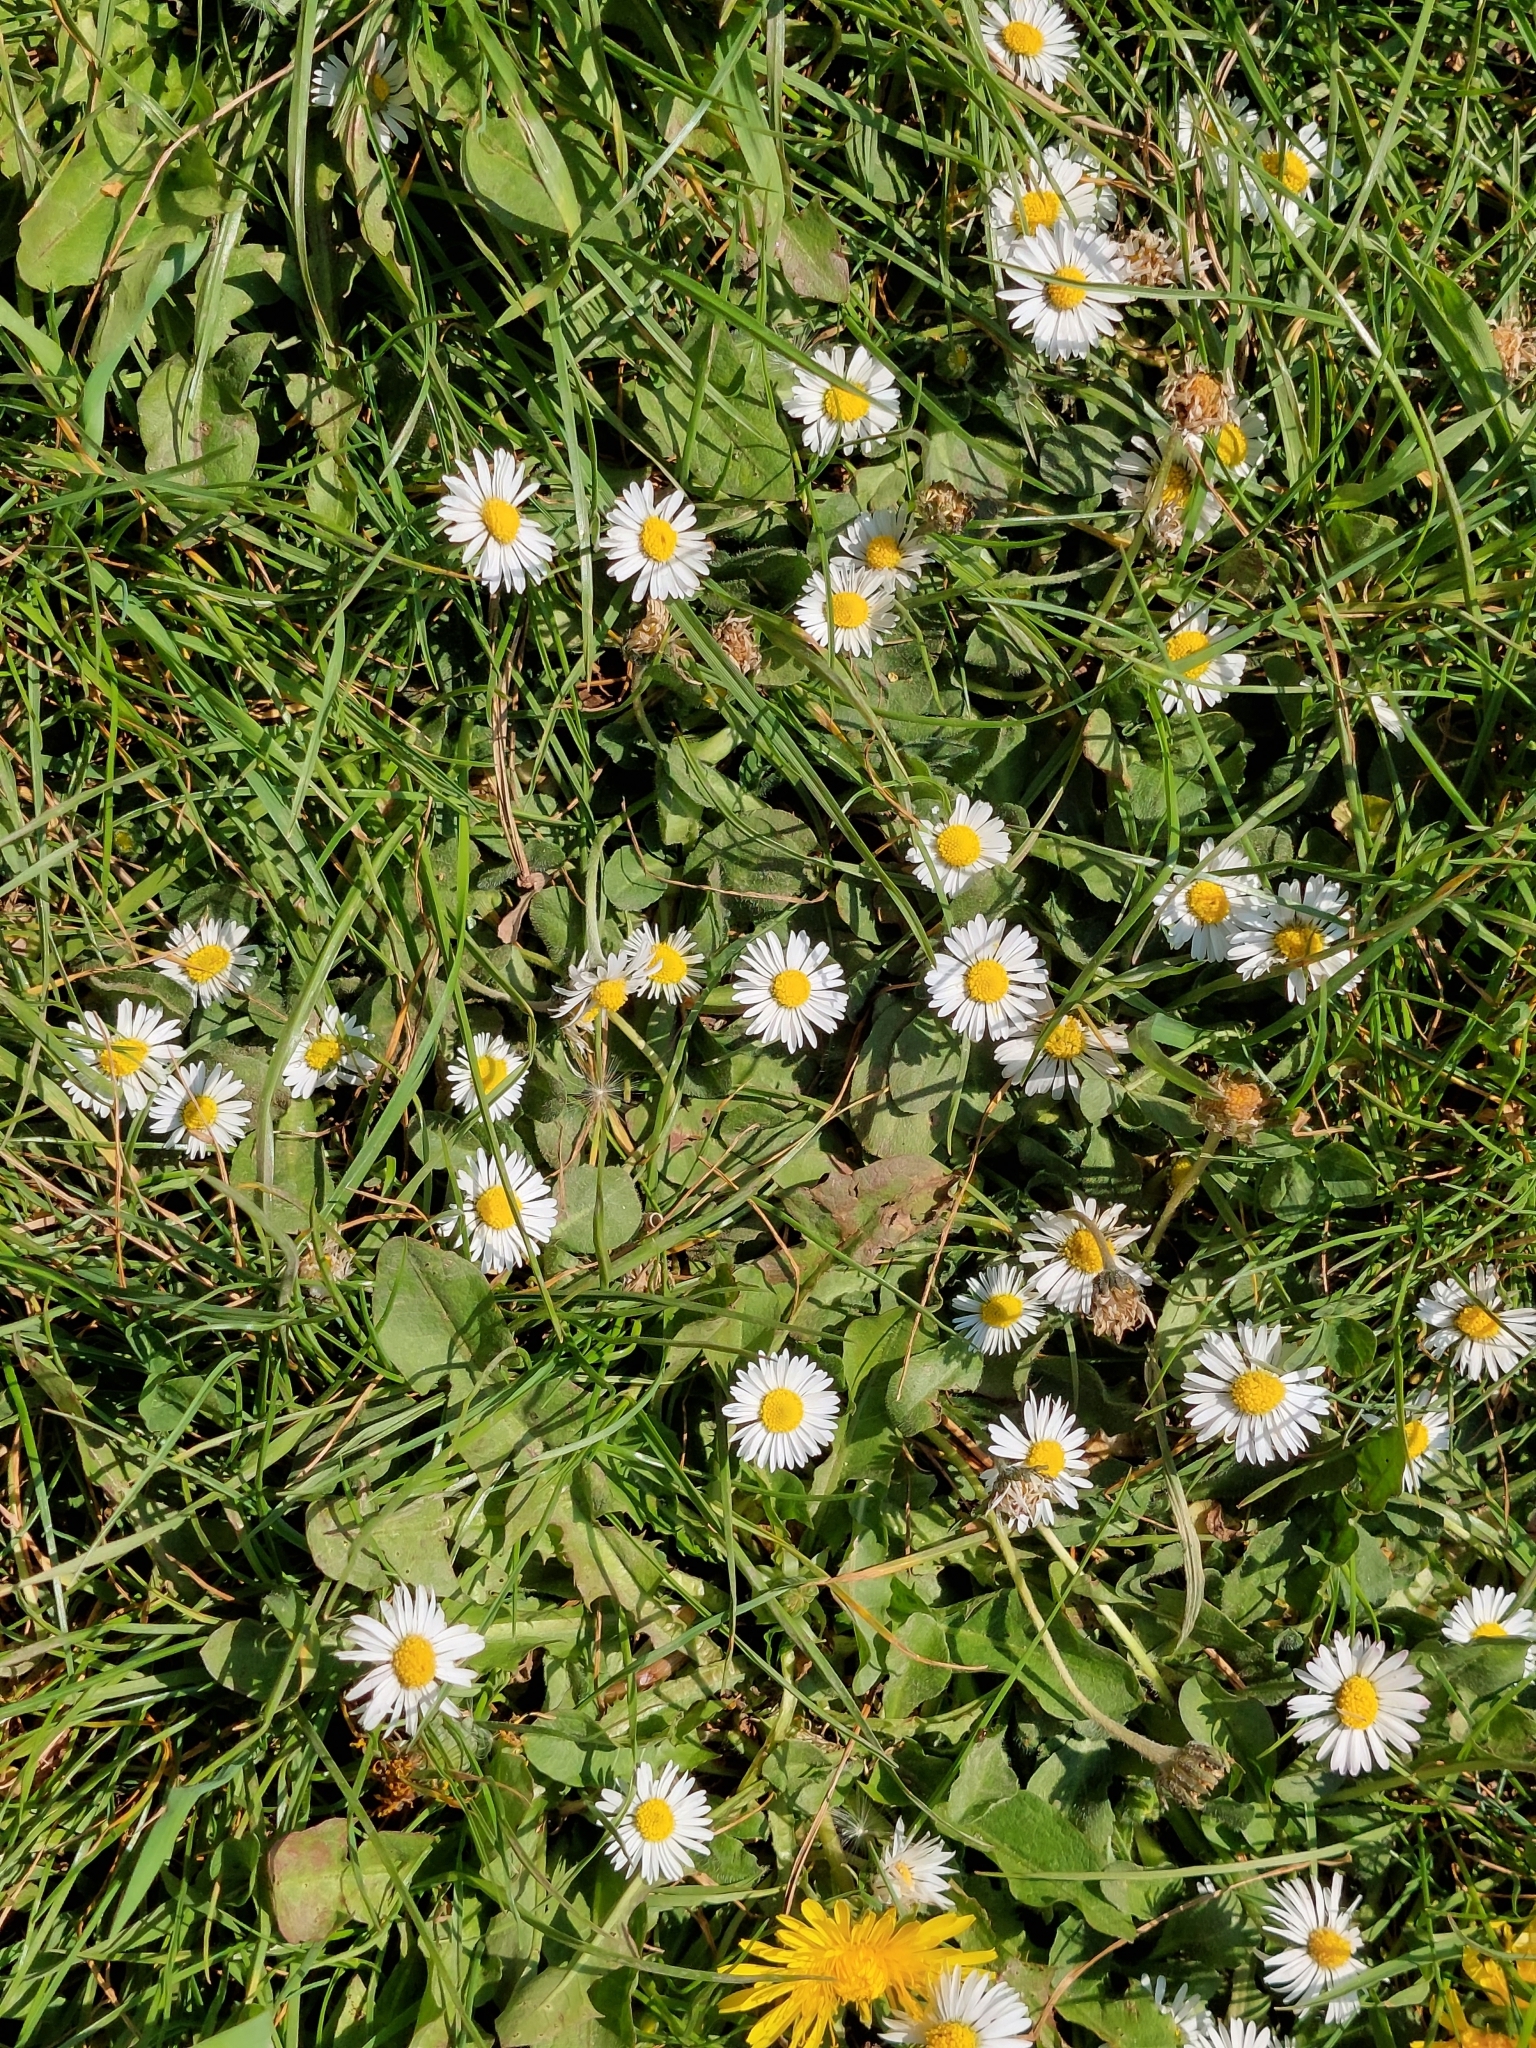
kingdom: Plantae
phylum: Tracheophyta
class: Magnoliopsida
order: Asterales
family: Asteraceae
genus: Bellis
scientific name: Bellis perennis
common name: Lawndaisy
